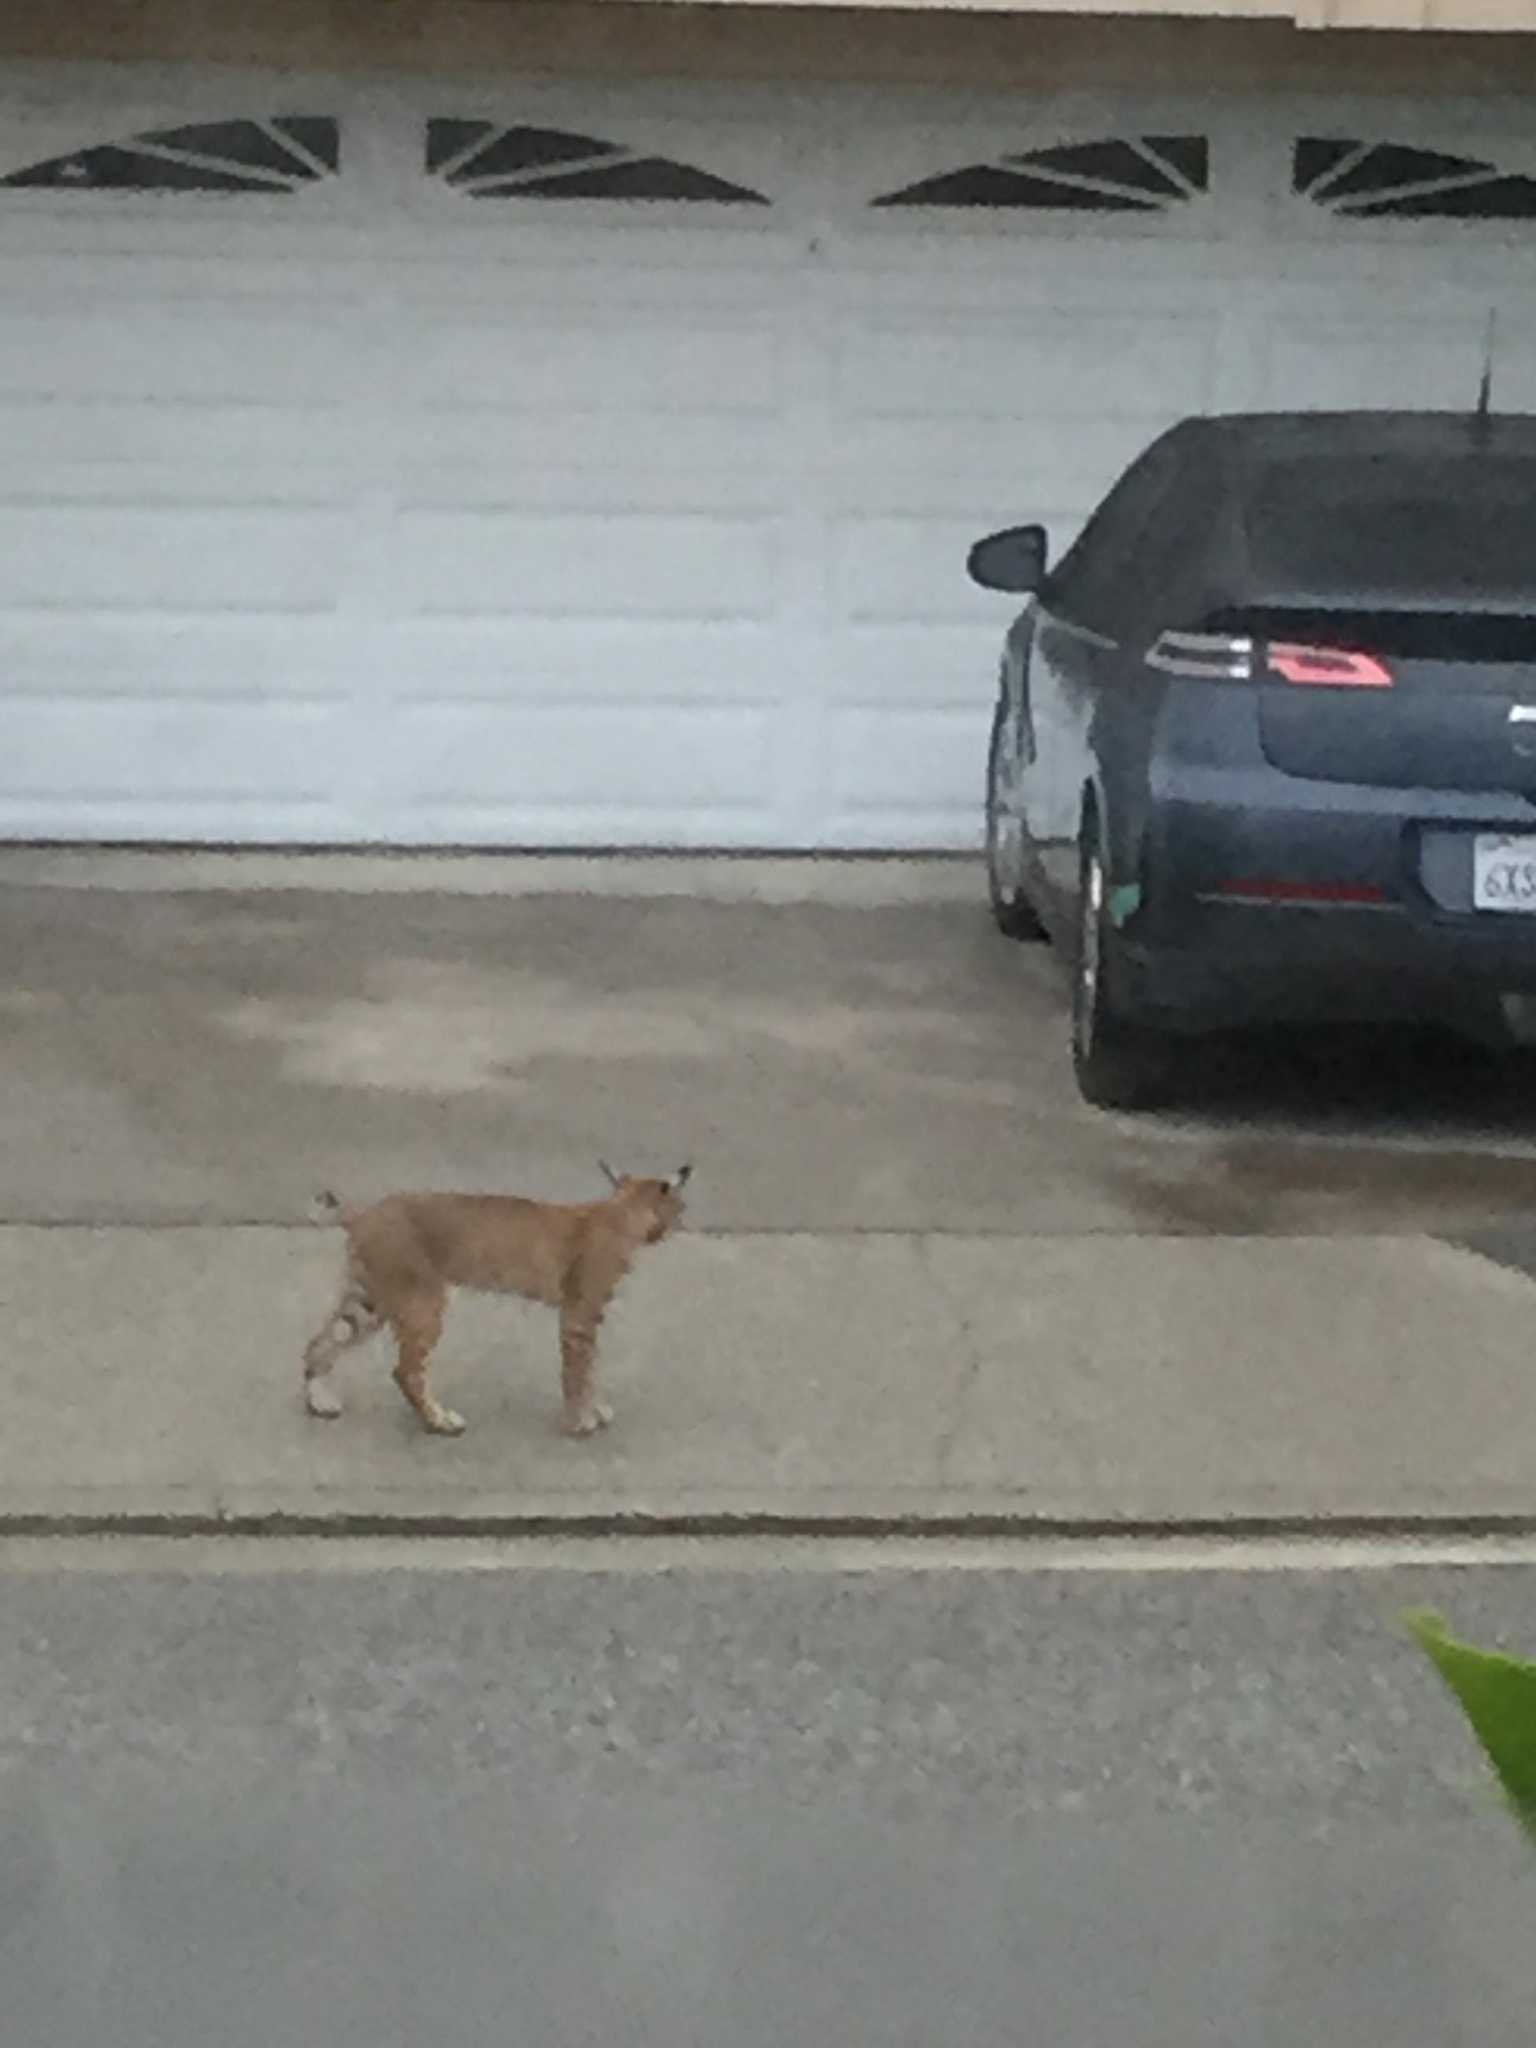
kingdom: Animalia
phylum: Chordata
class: Mammalia
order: Carnivora
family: Felidae
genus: Lynx
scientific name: Lynx rufus
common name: Bobcat
